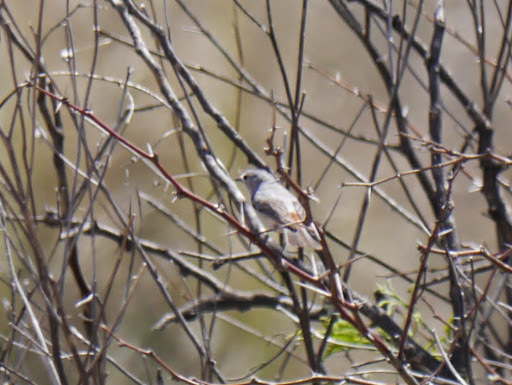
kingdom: Animalia
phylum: Chordata
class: Aves
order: Passeriformes
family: Parulidae
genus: Leiothlypis
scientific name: Leiothlypis luciae
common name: Lucy's warbler
